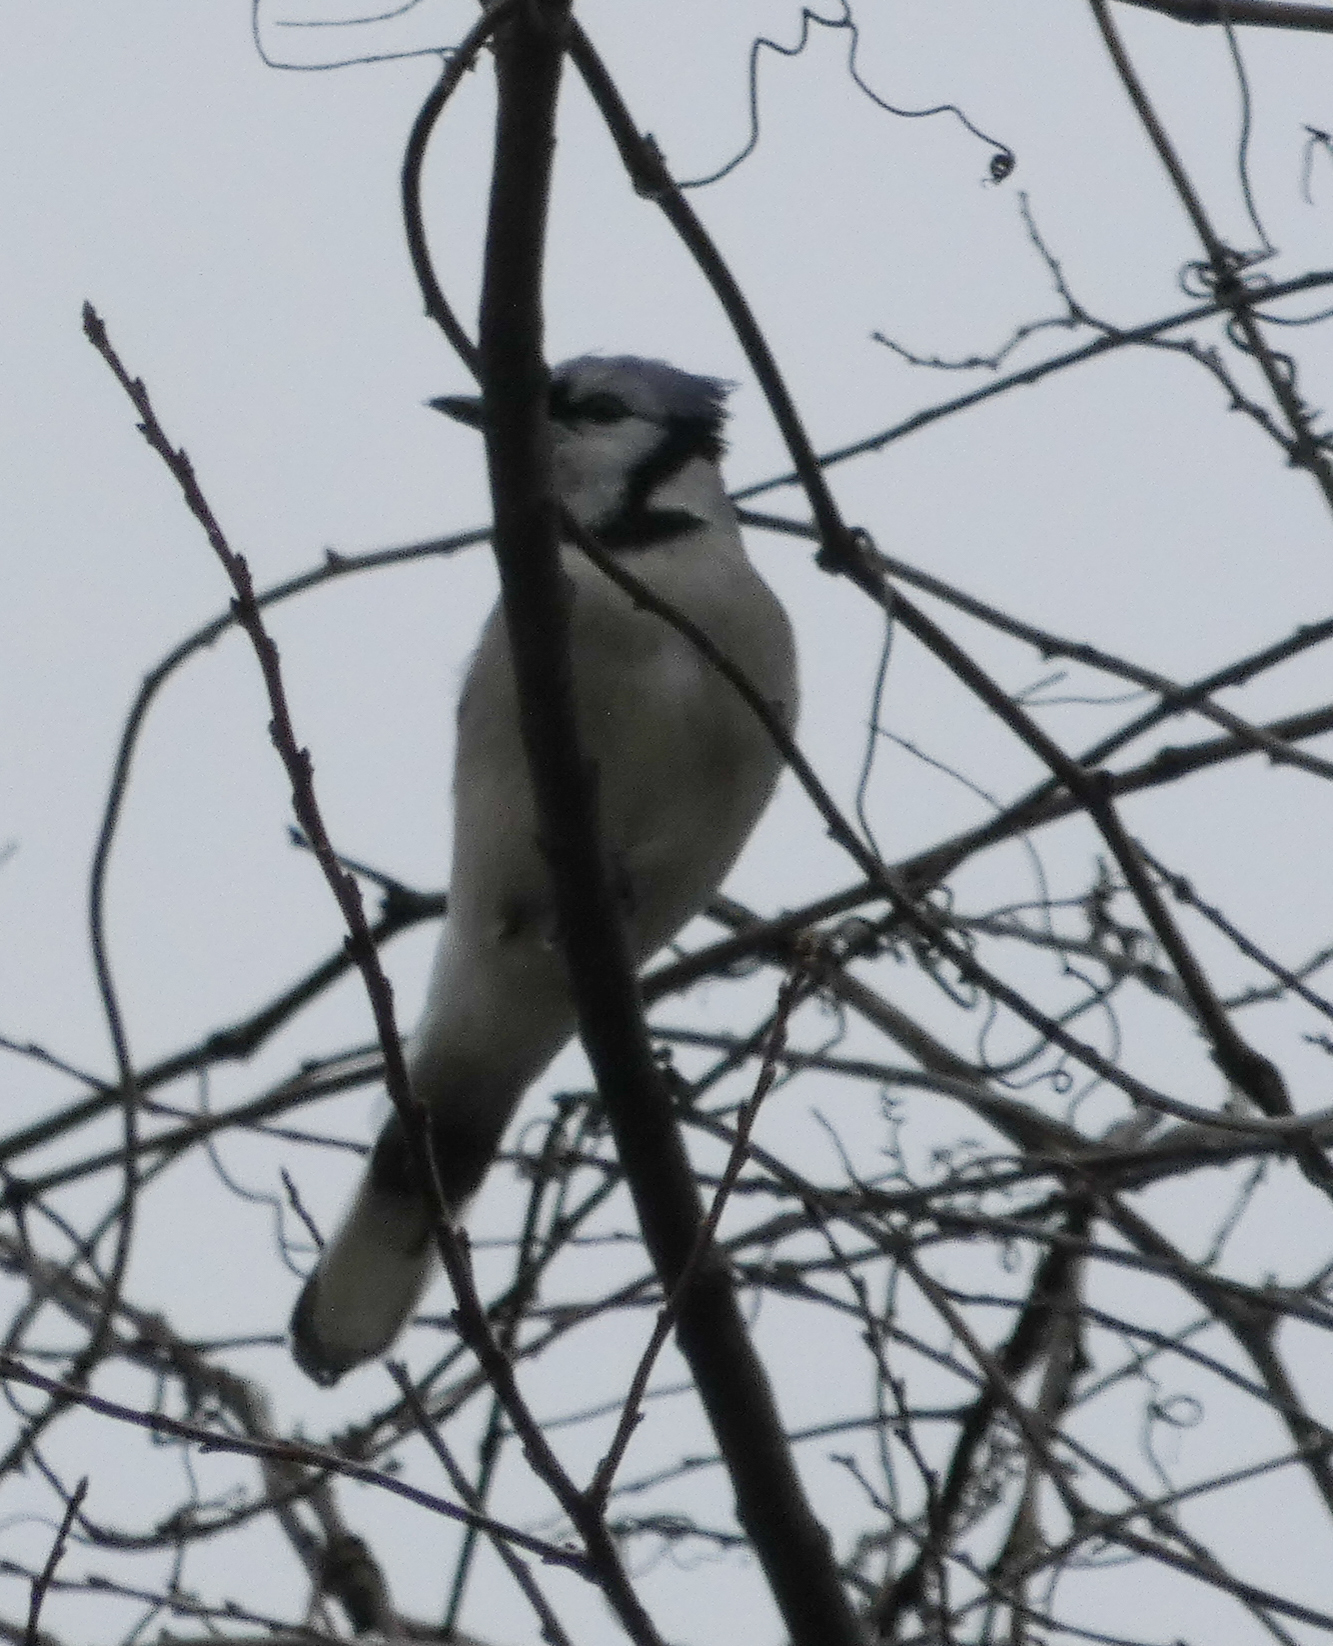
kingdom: Animalia
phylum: Chordata
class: Aves
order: Passeriformes
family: Corvidae
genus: Cyanocitta
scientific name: Cyanocitta cristata
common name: Blue jay
